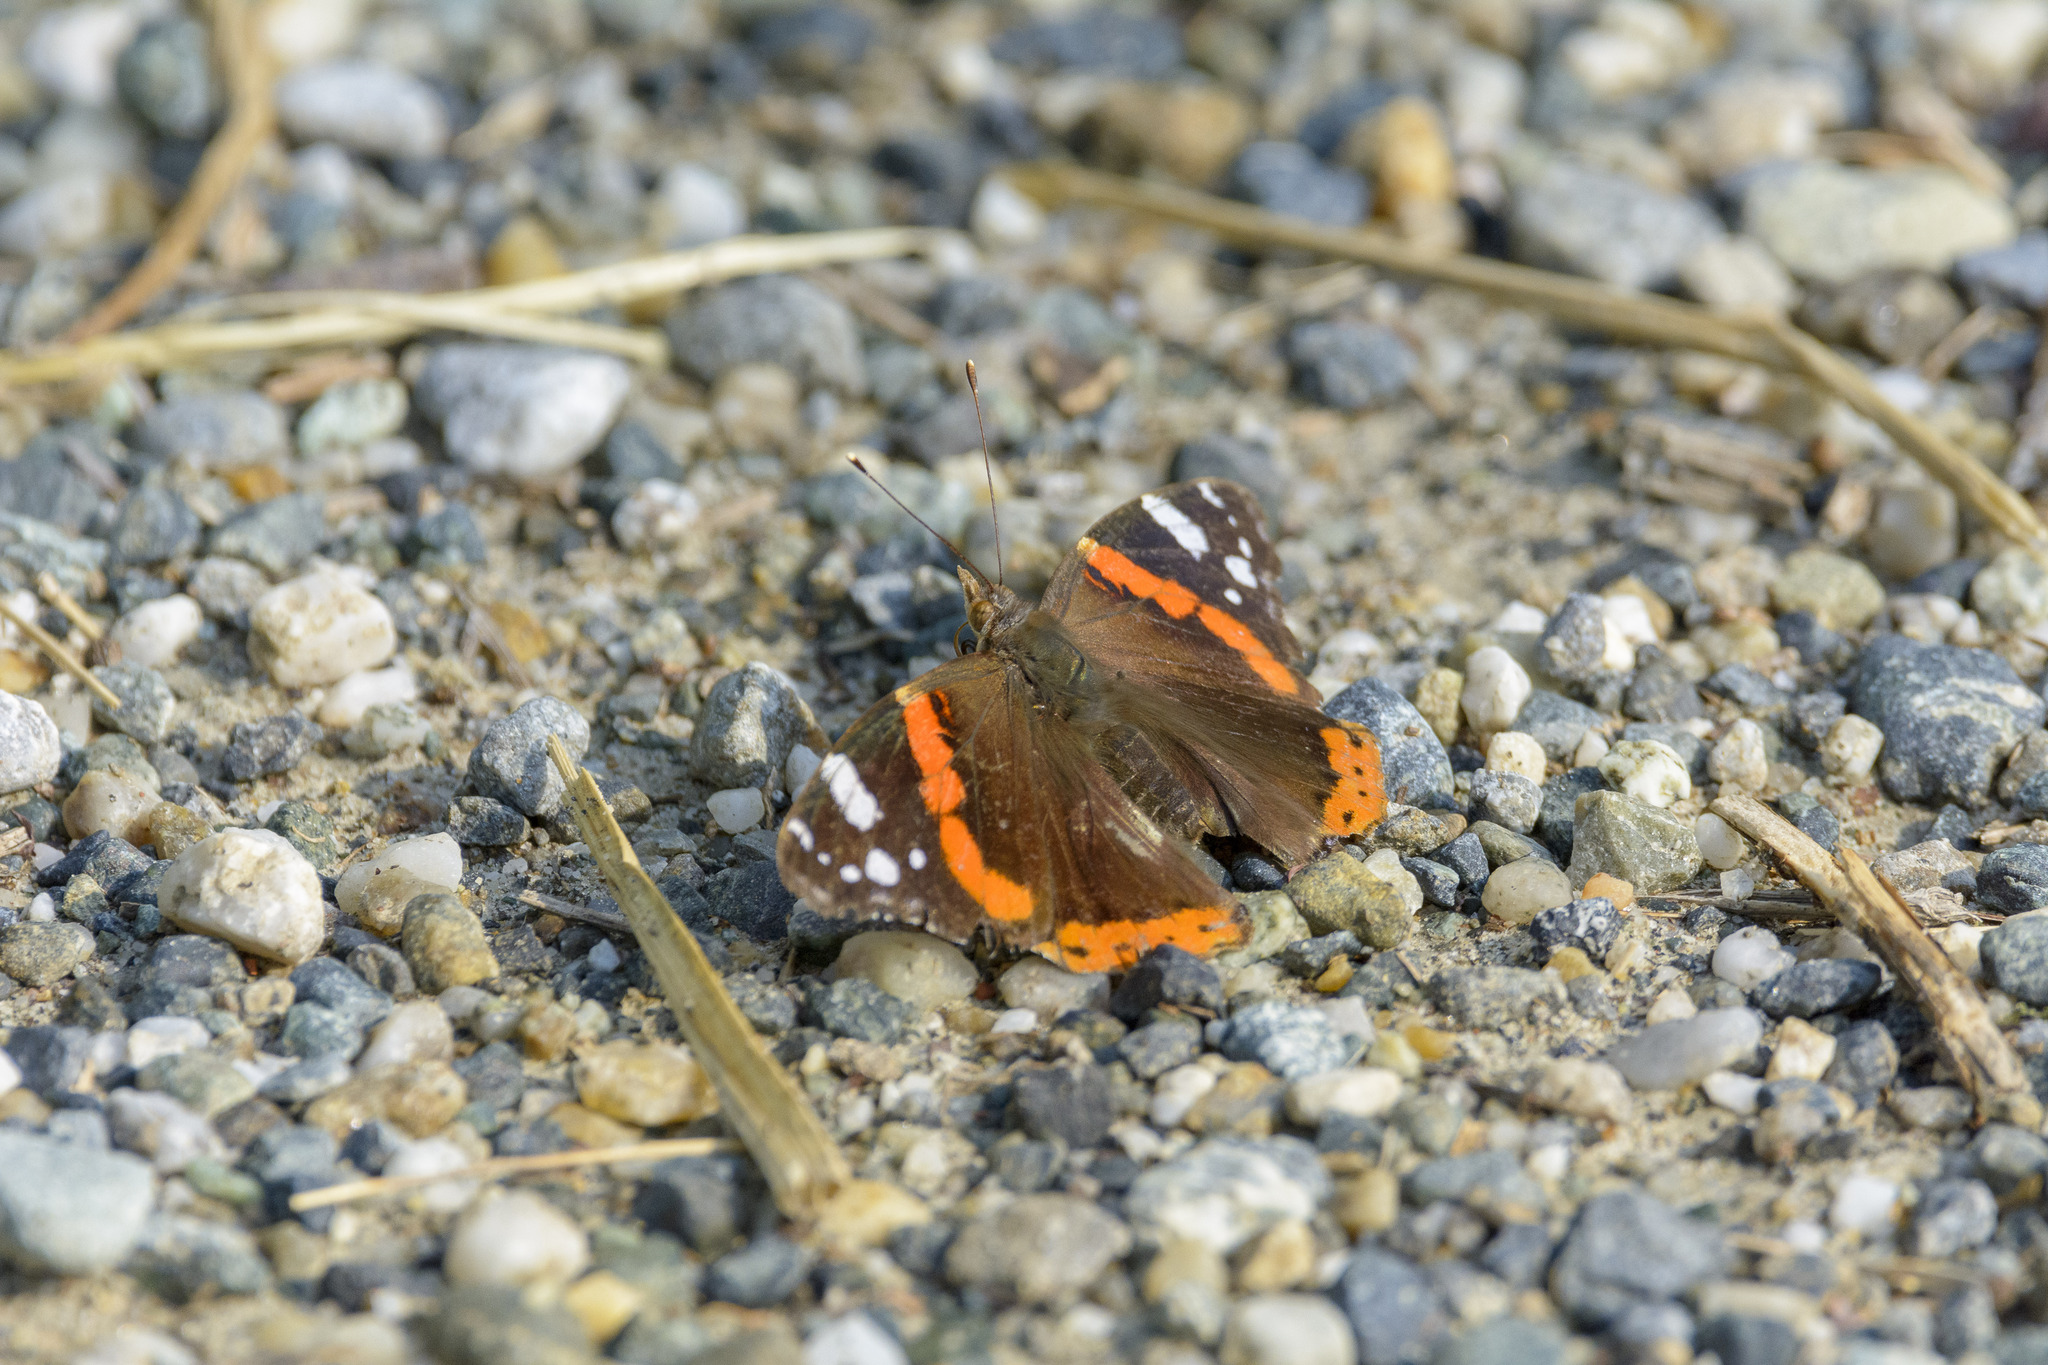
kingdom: Animalia
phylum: Arthropoda
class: Insecta
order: Lepidoptera
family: Nymphalidae
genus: Vanessa
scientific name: Vanessa atalanta
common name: Red admiral
